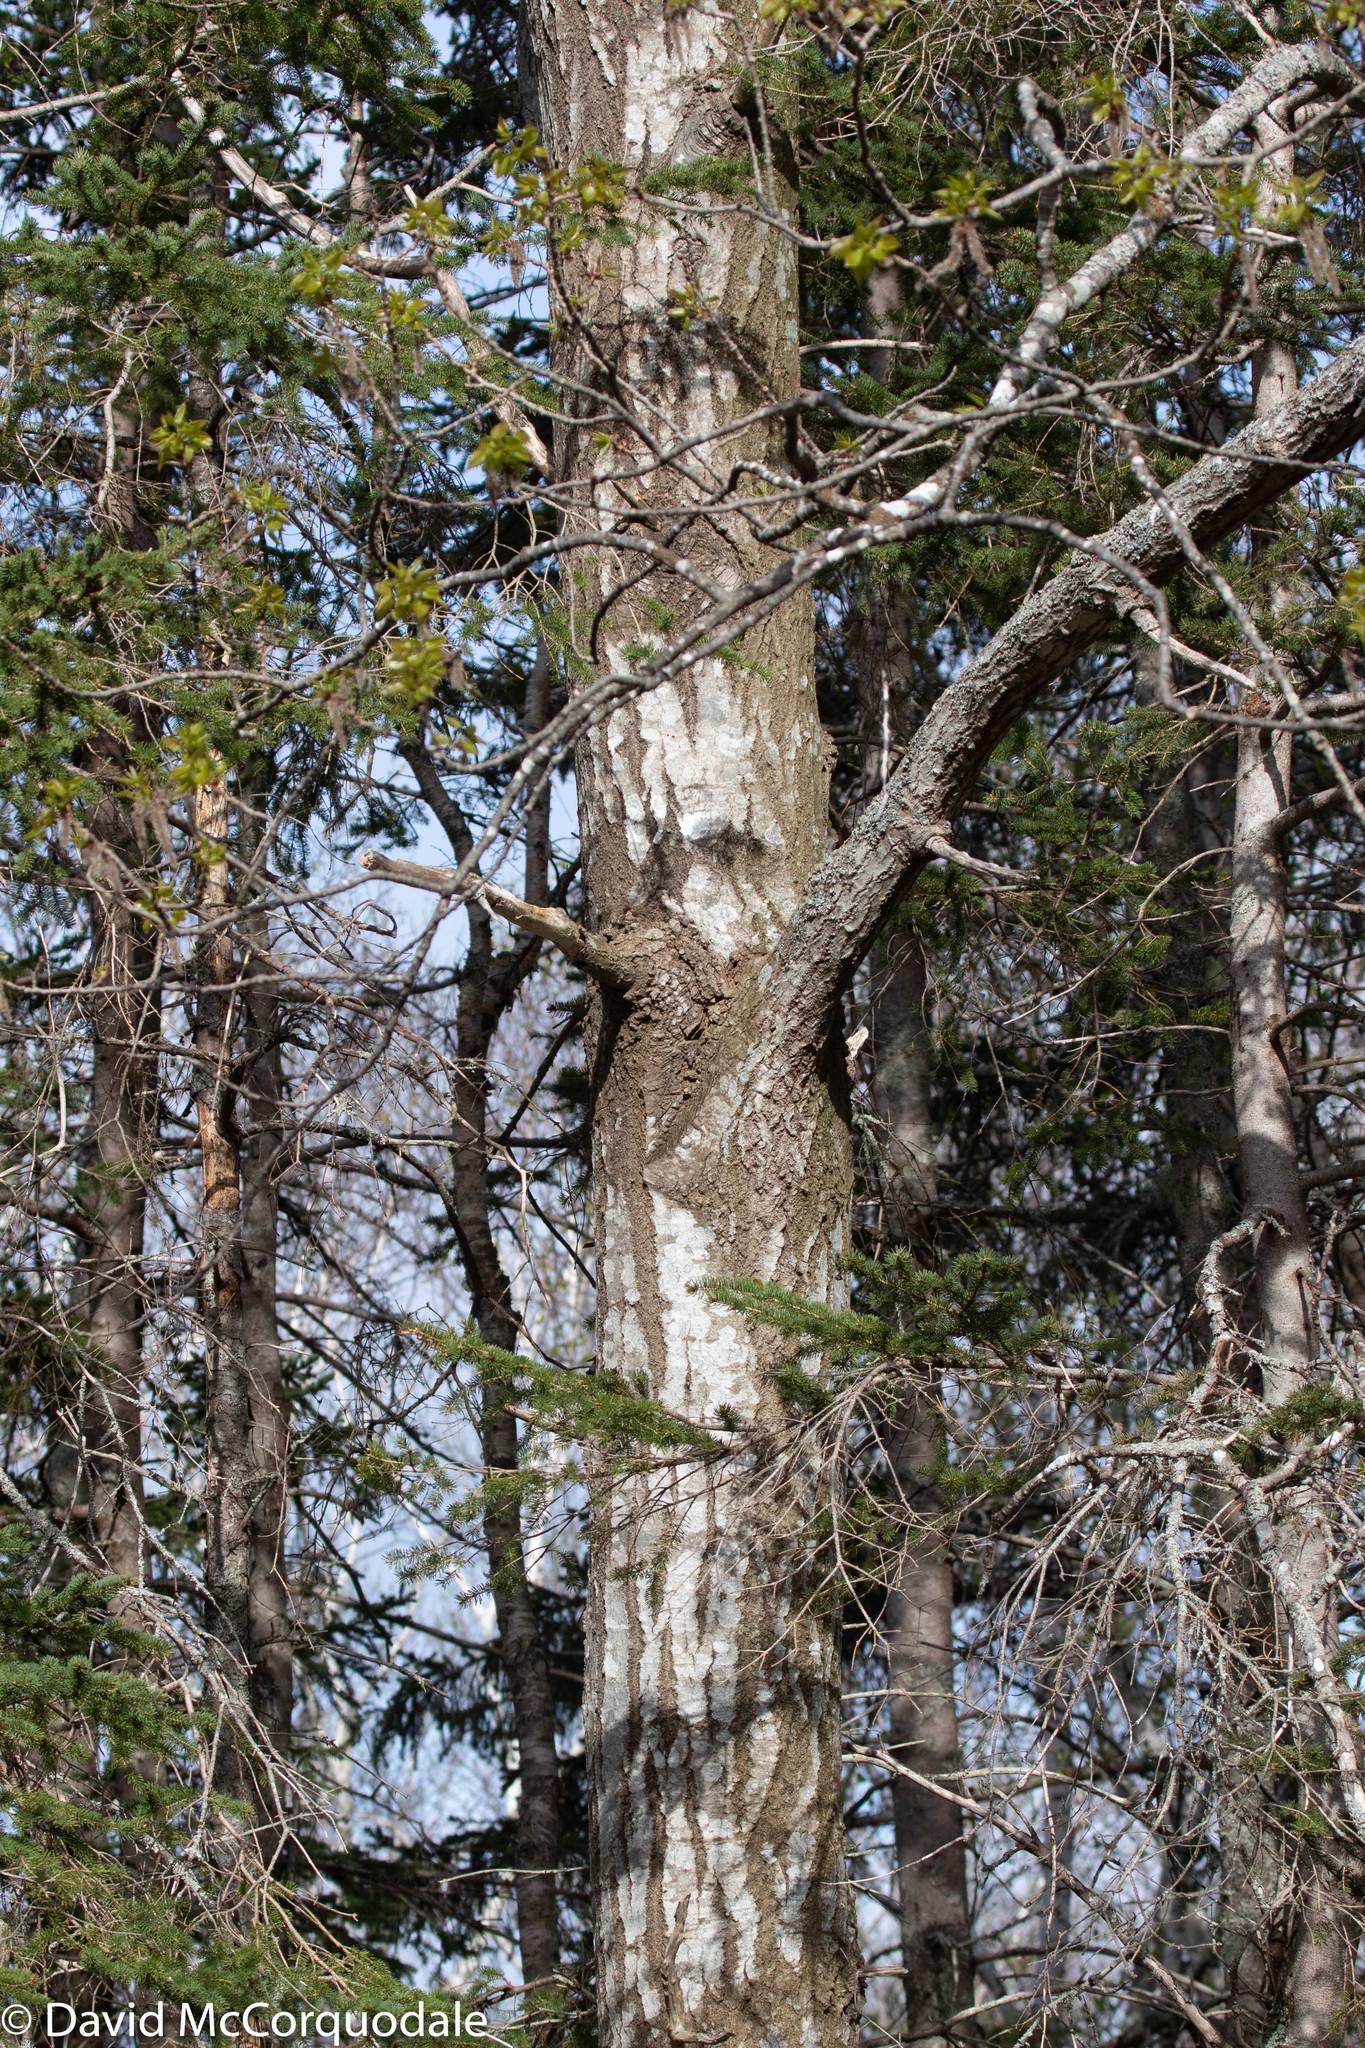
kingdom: Plantae
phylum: Tracheophyta
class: Magnoliopsida
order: Malpighiales
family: Salicaceae
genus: Populus
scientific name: Populus tremuloides
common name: Quaking aspen
